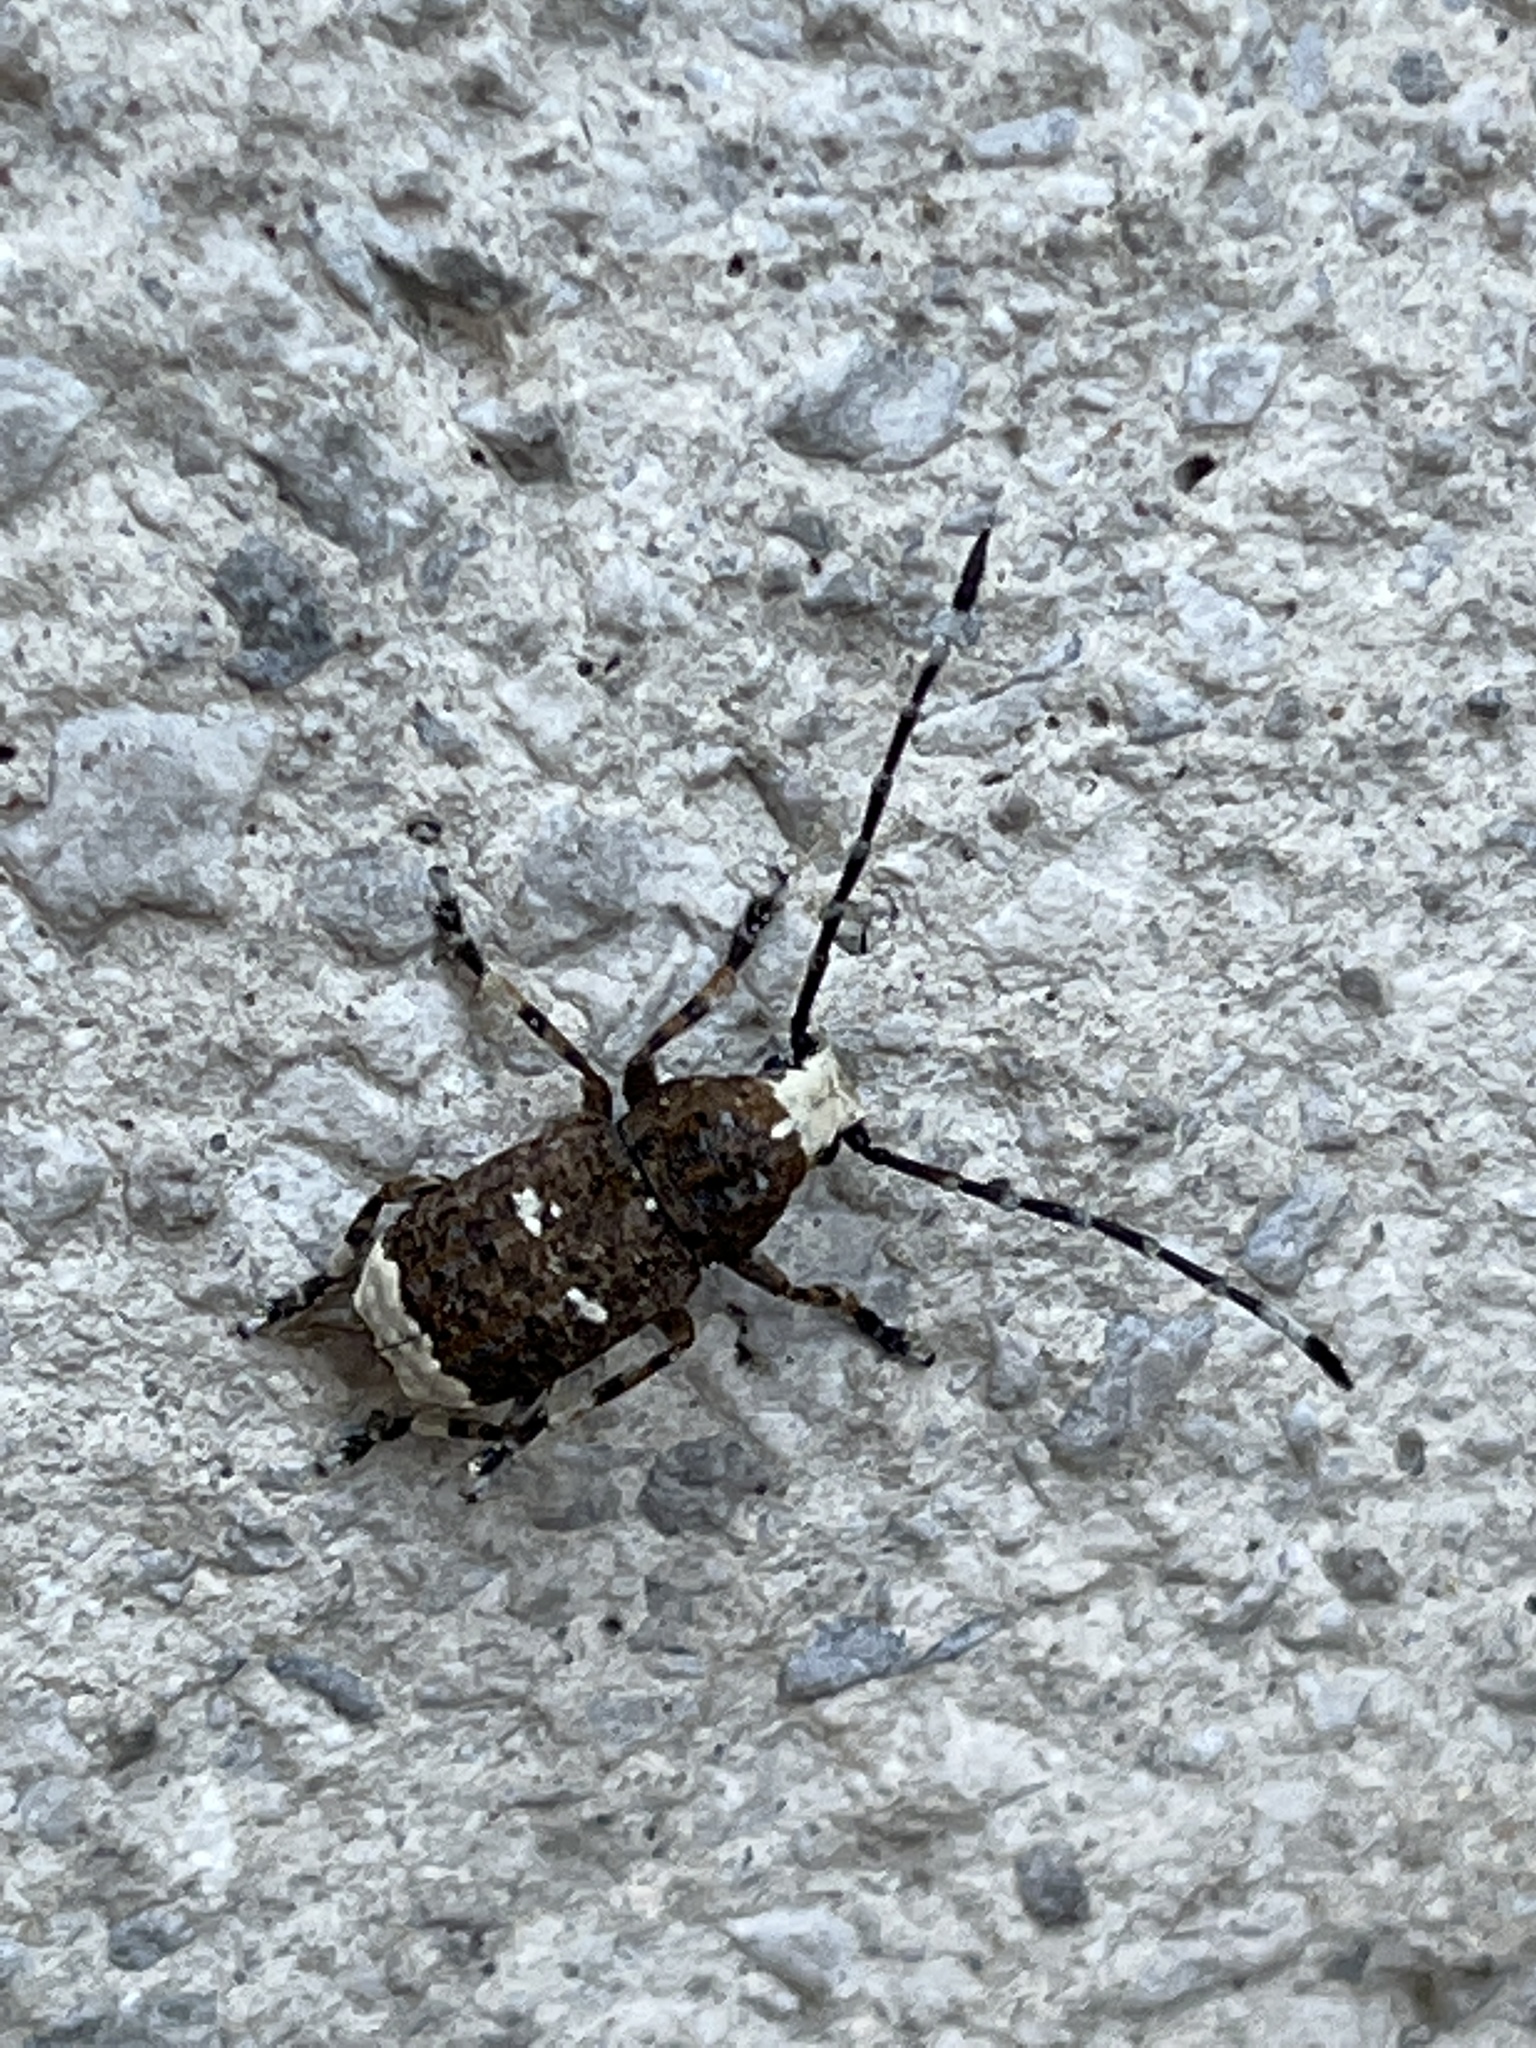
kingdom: Animalia
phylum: Arthropoda
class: Insecta
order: Coleoptera
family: Anthribidae
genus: Platystomos
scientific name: Platystomos albinus
